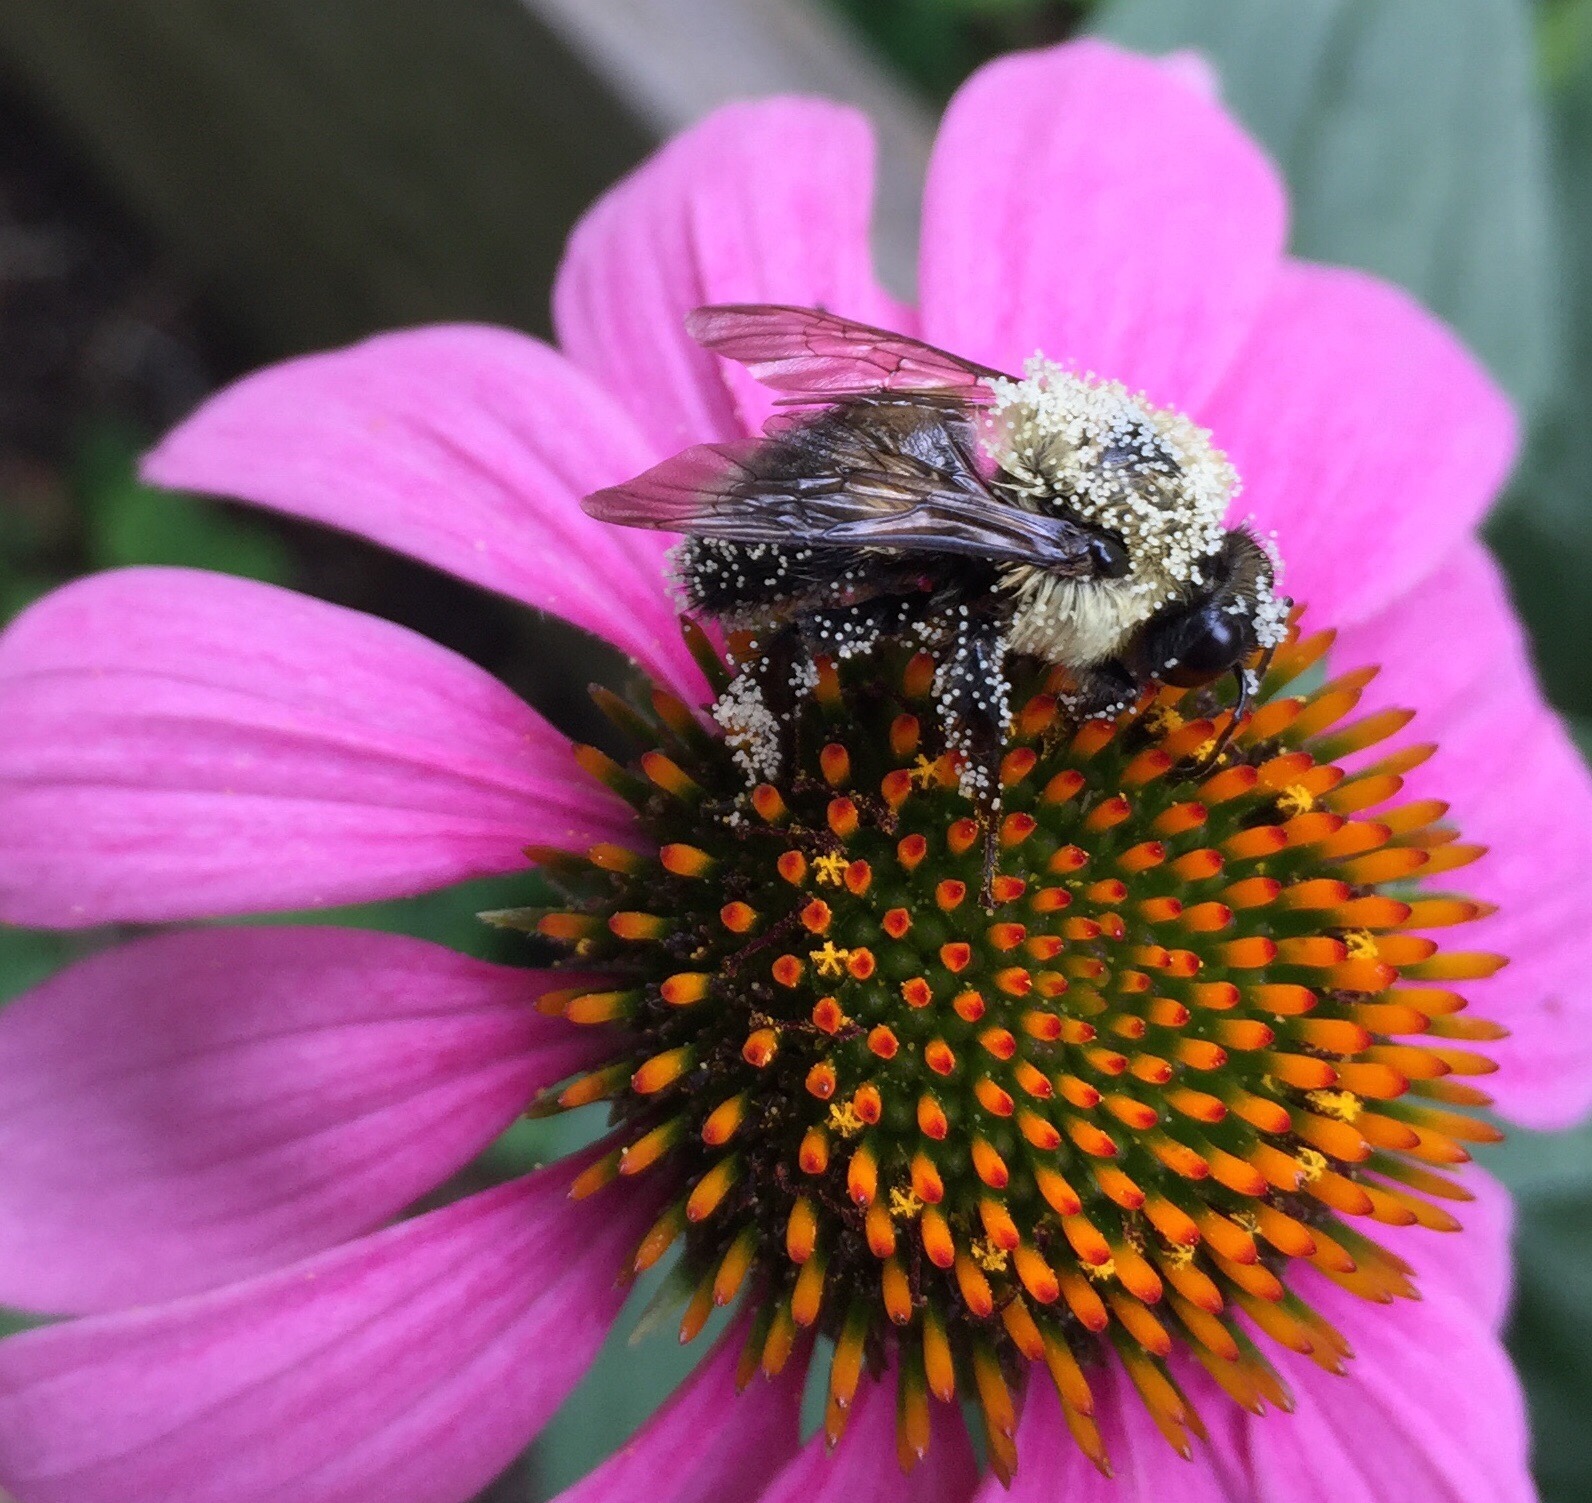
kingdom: Animalia
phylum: Arthropoda
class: Insecta
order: Hymenoptera
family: Apidae
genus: Bombus
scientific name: Bombus griseocollis
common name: Brown-belted bumble bee
